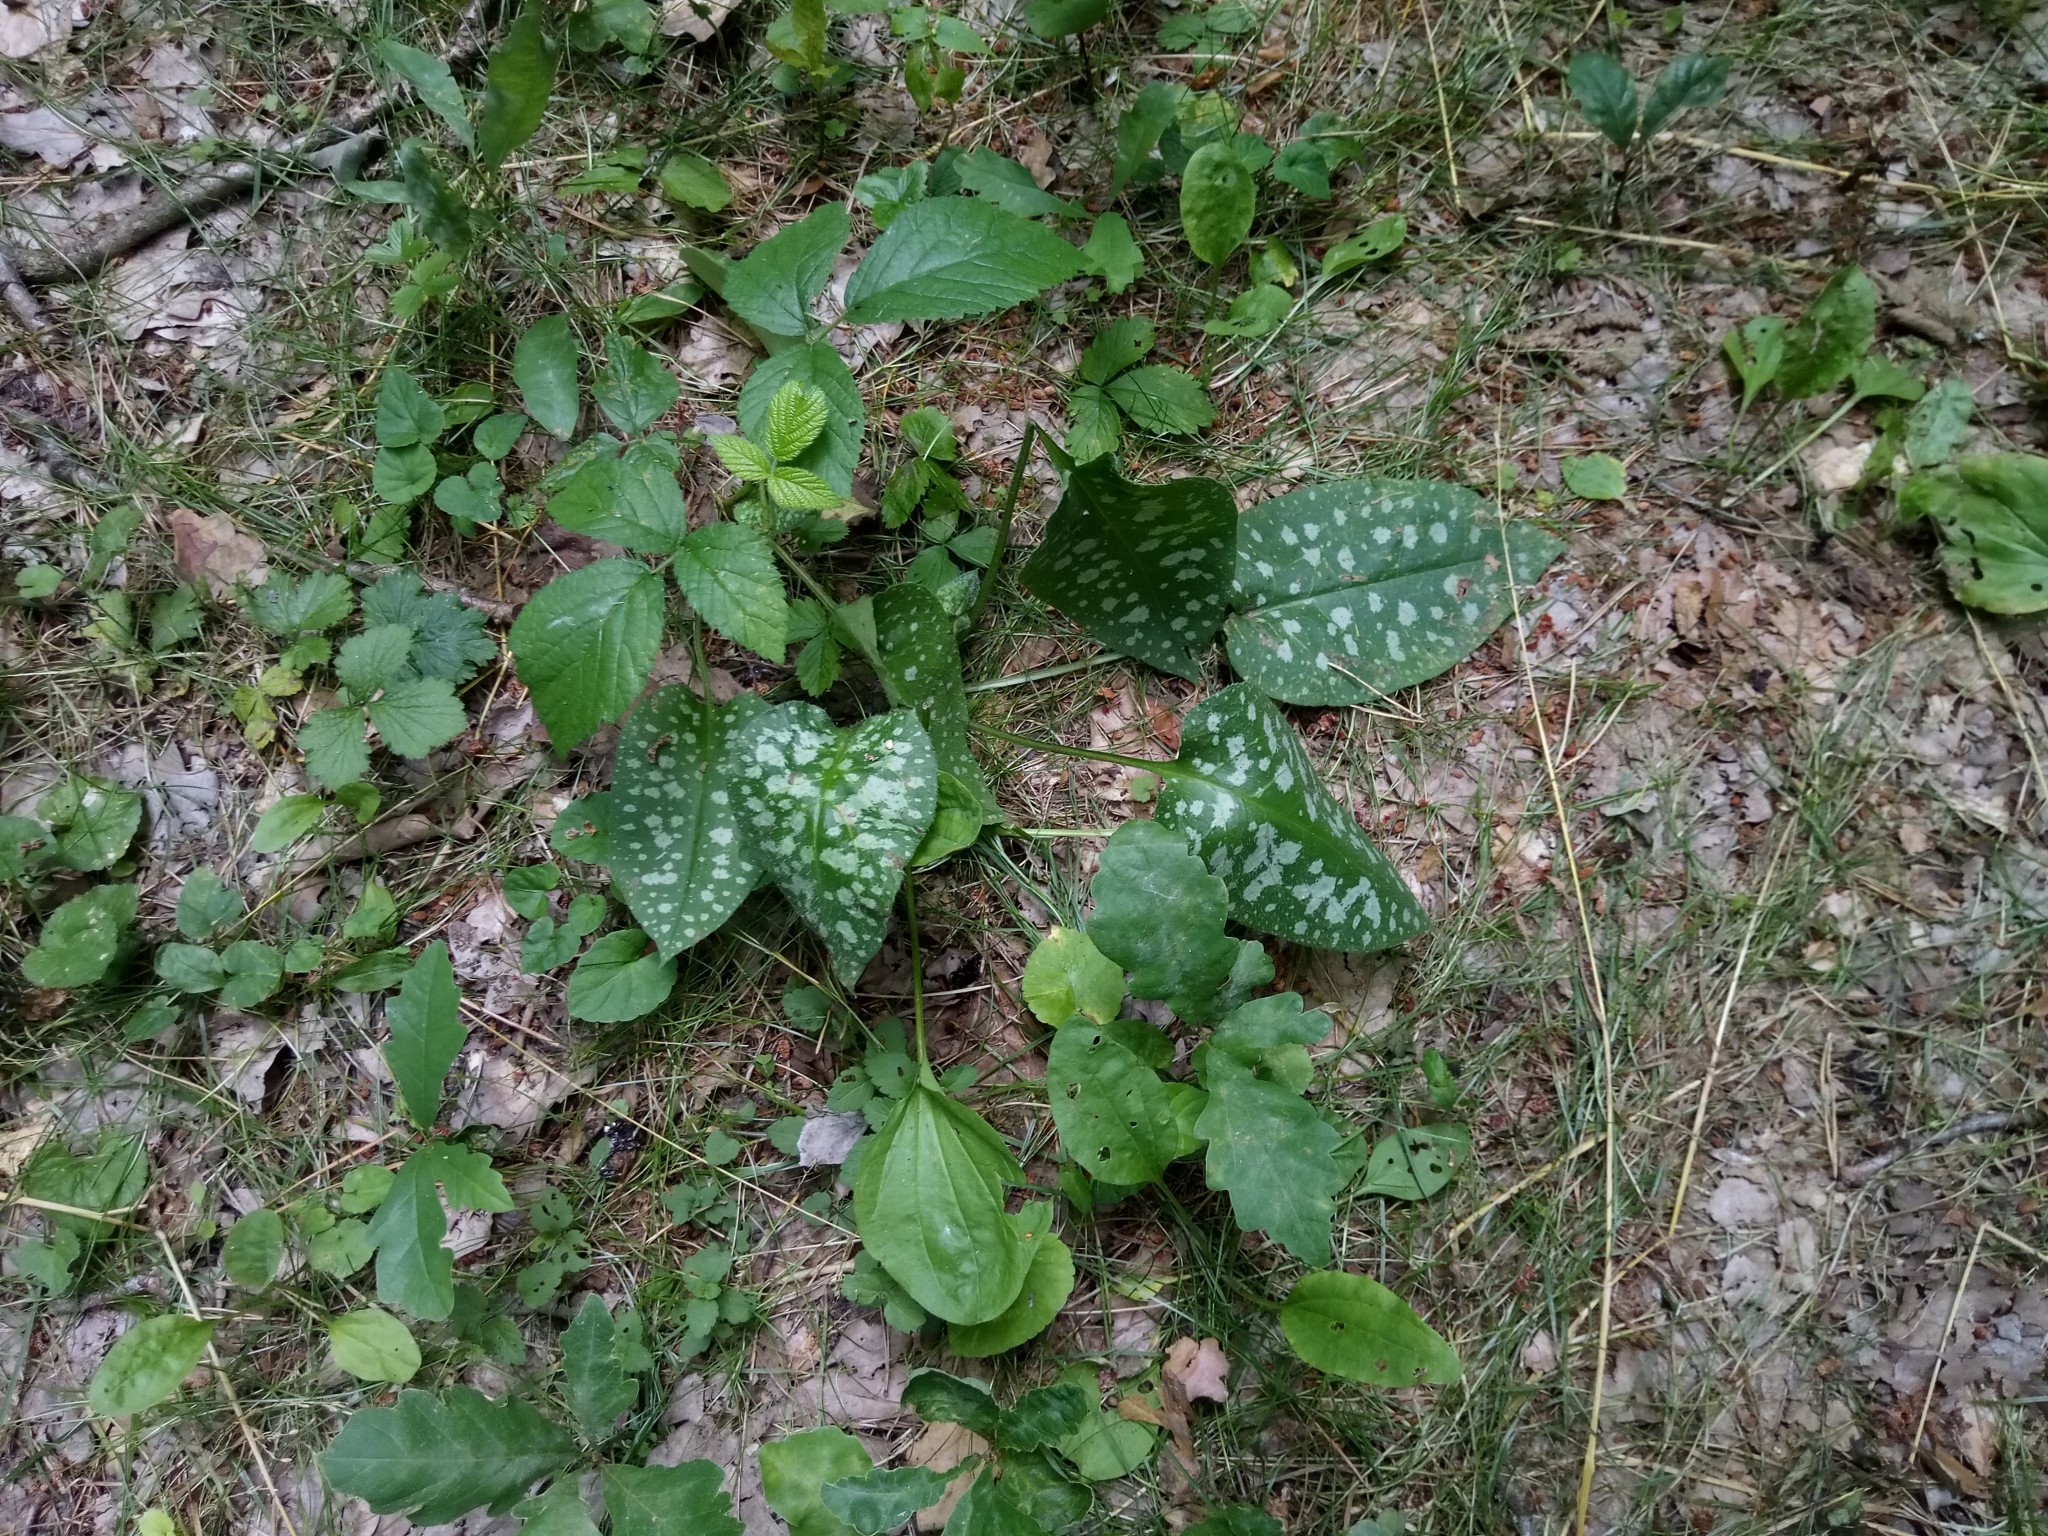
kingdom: Plantae
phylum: Tracheophyta
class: Magnoliopsida
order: Boraginales
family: Boraginaceae
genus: Pulmonaria
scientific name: Pulmonaria officinalis
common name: Lungwort
